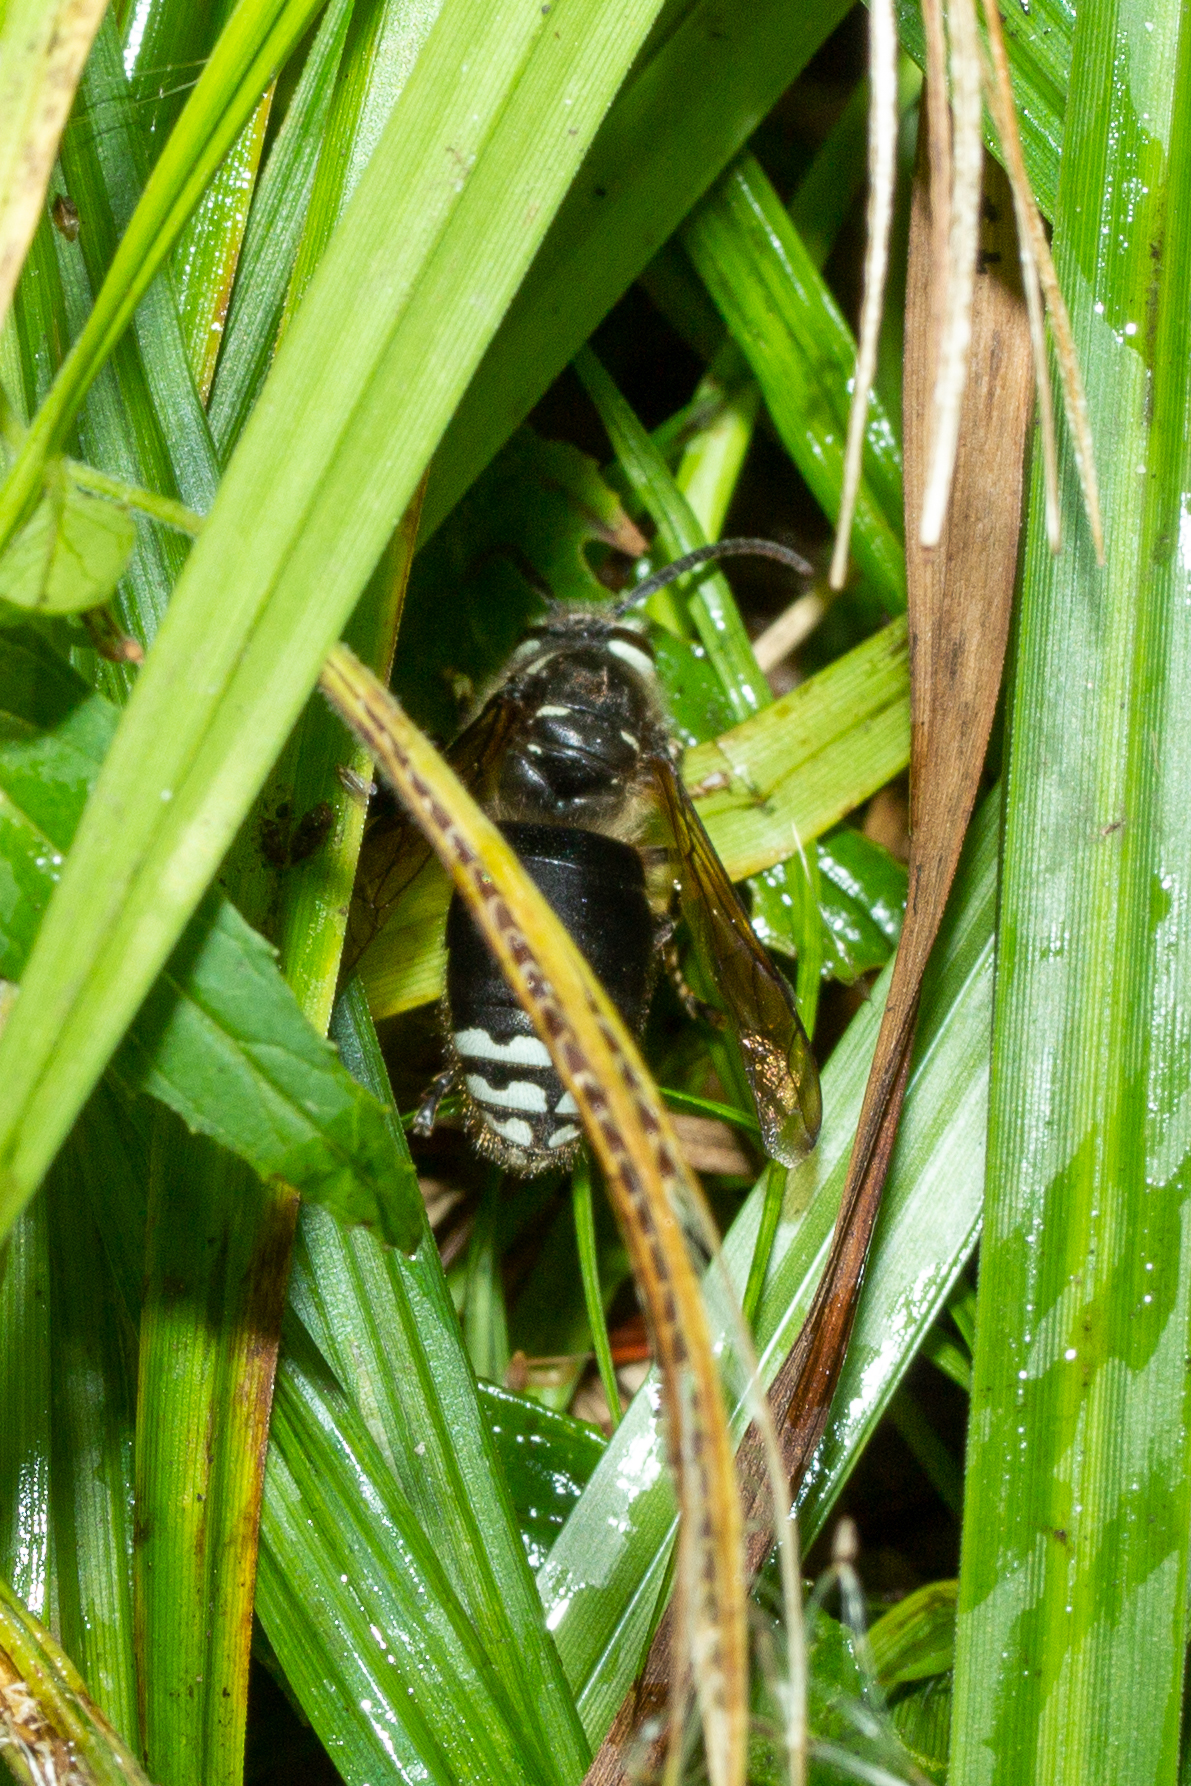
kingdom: Animalia
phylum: Arthropoda
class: Insecta
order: Hymenoptera
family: Vespidae
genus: Dolichovespula
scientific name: Dolichovespula maculata
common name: Bald-faced hornet
